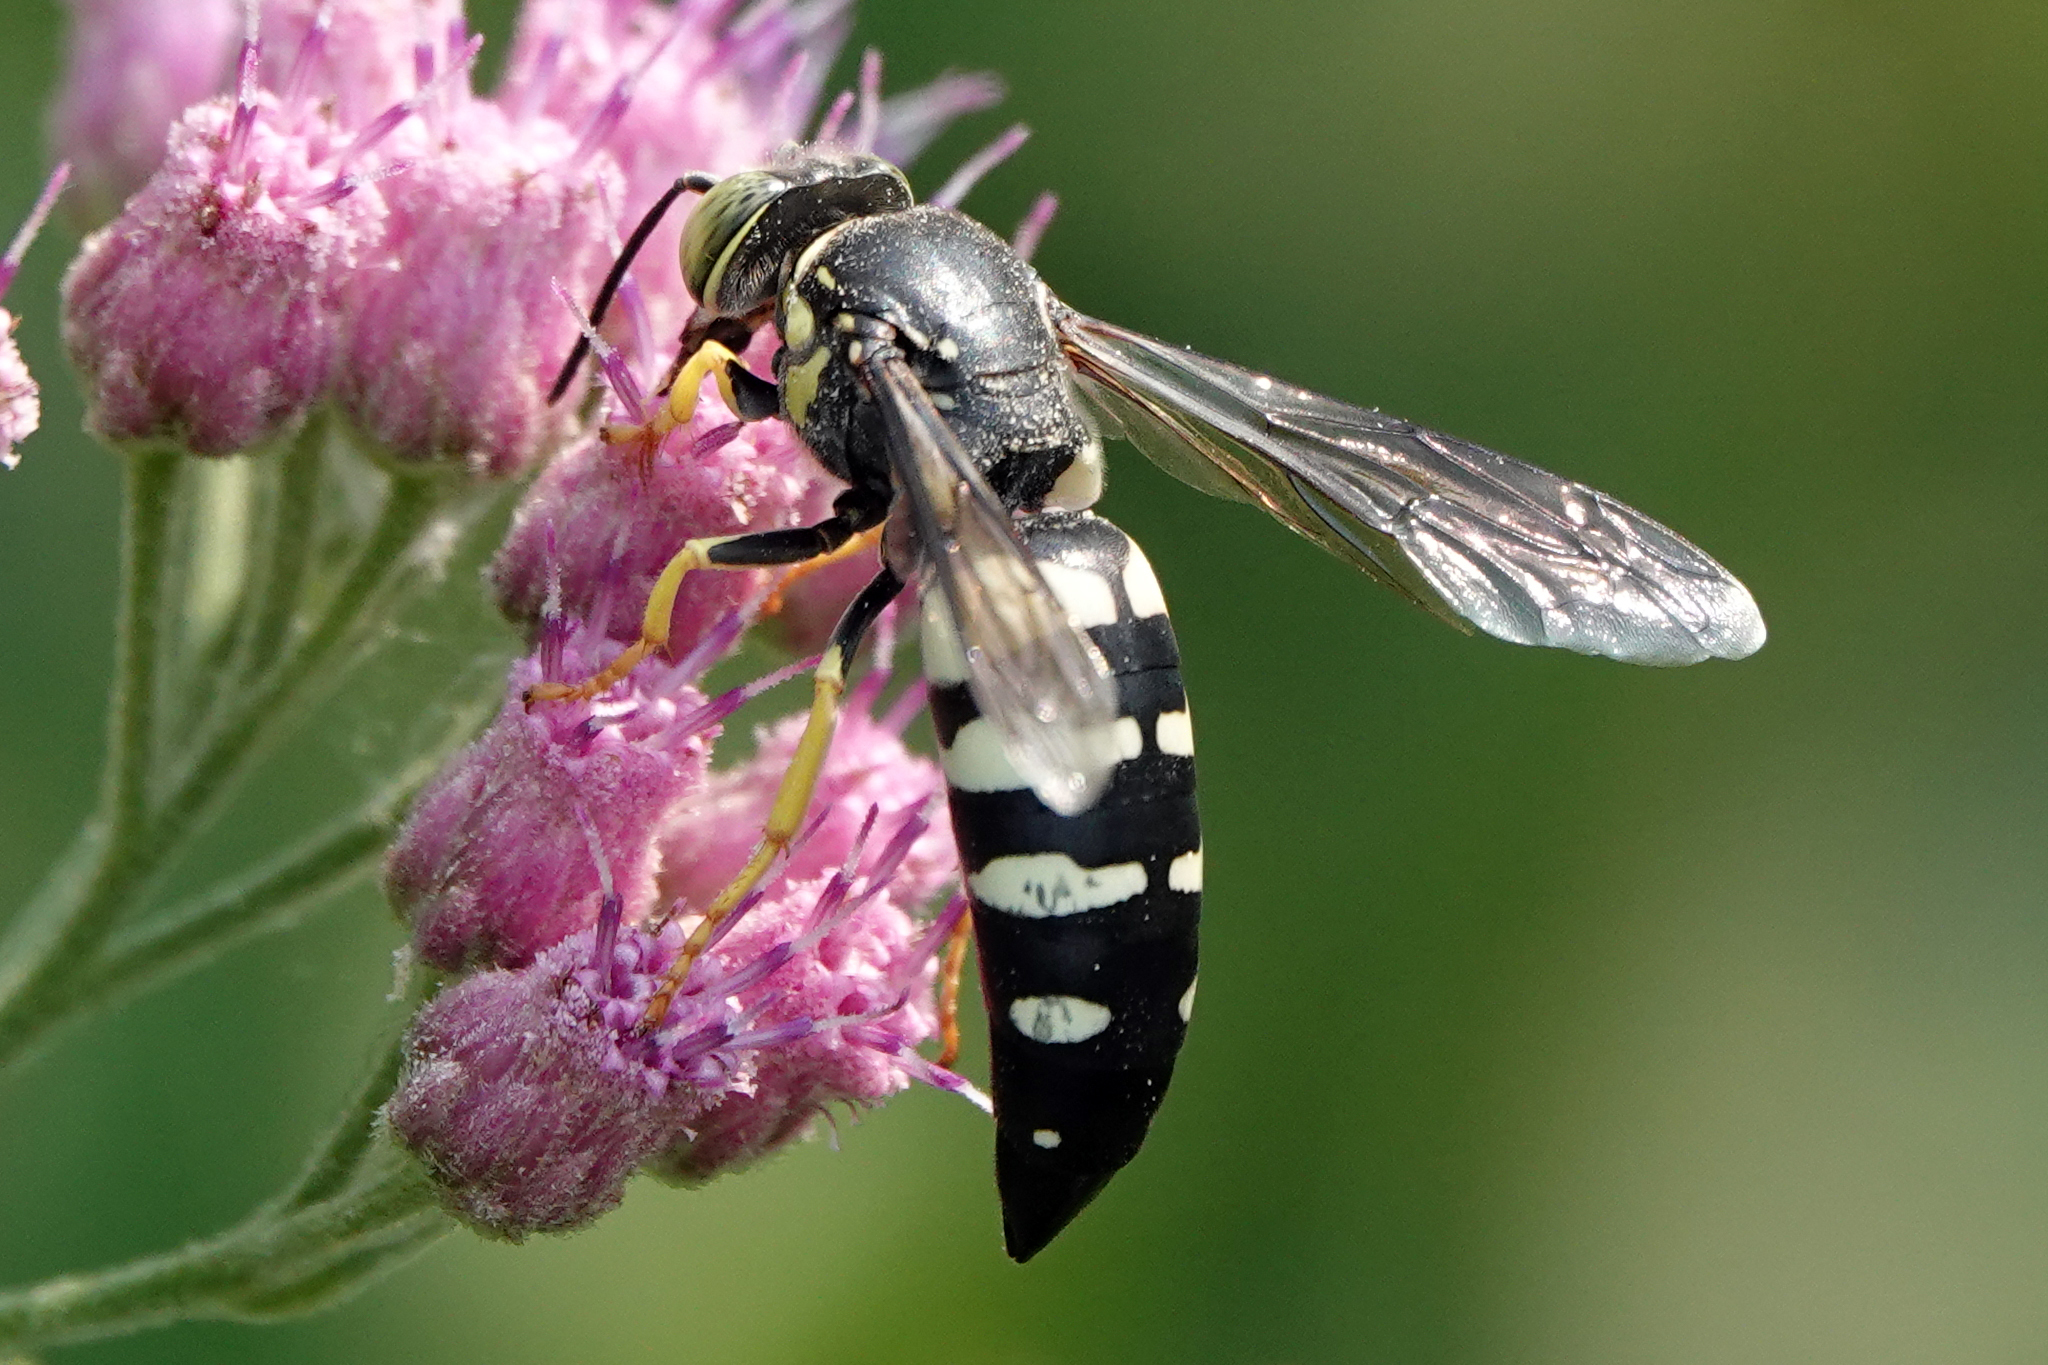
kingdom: Animalia
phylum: Arthropoda
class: Insecta
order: Hymenoptera
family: Crabronidae
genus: Bicyrtes
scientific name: Bicyrtes quadrifasciatus
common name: Four-banded stink bug hunter wasp
